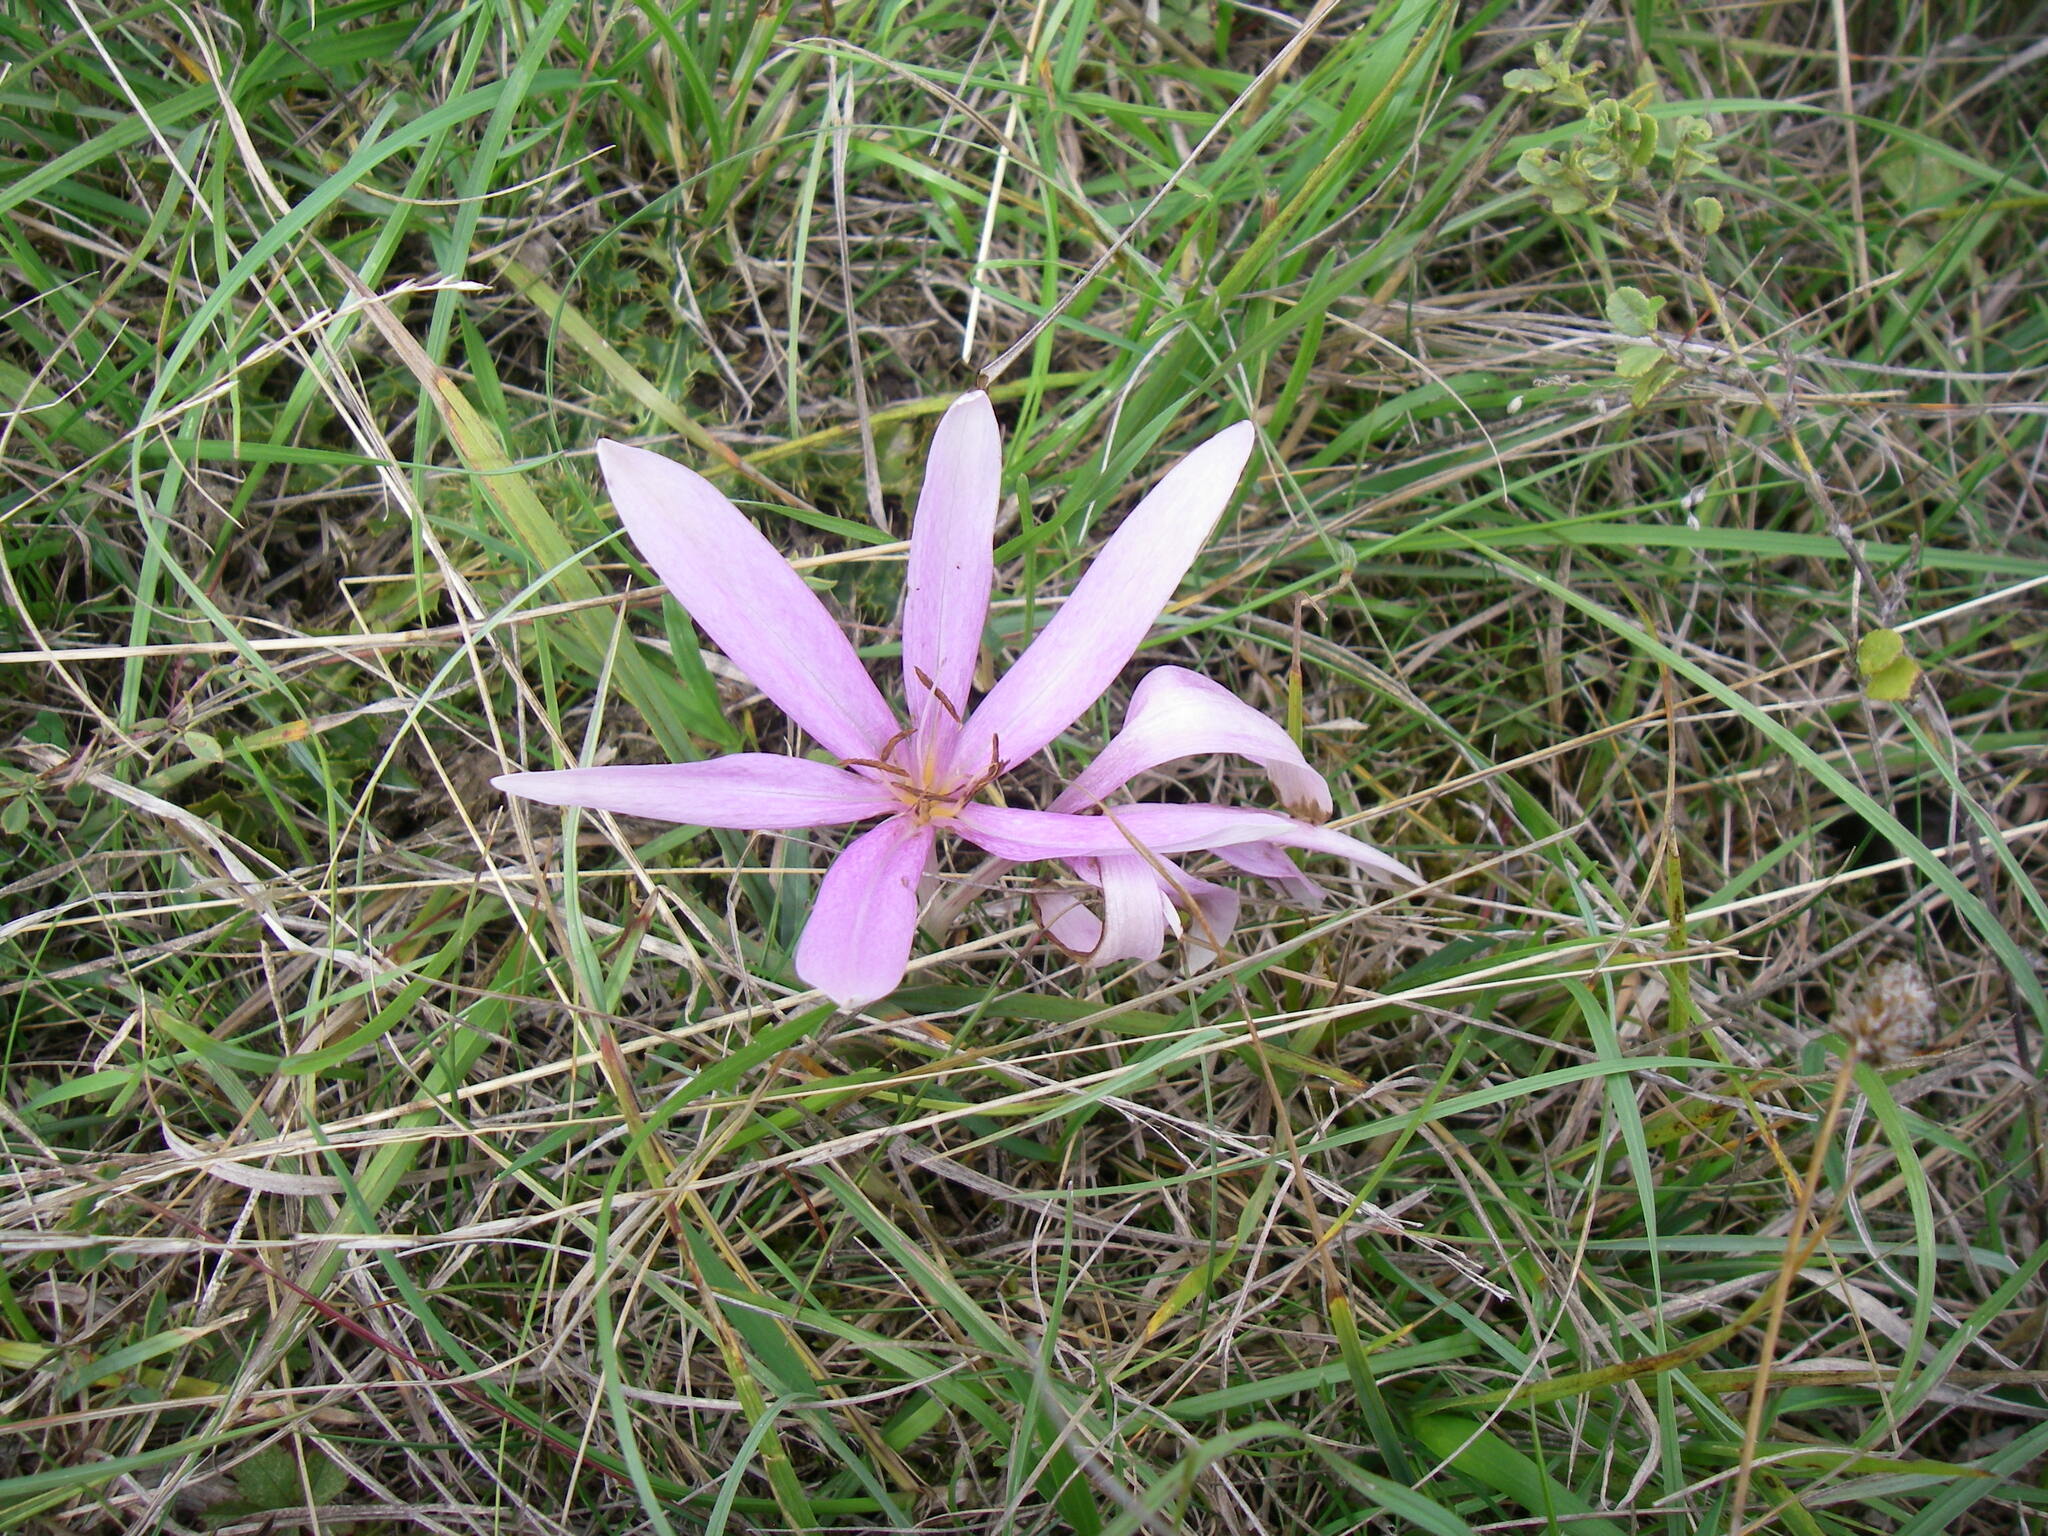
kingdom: Plantae
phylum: Tracheophyta
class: Liliopsida
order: Liliales
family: Colchicaceae
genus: Colchicum
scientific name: Colchicum autumnale
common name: Autumn crocus
